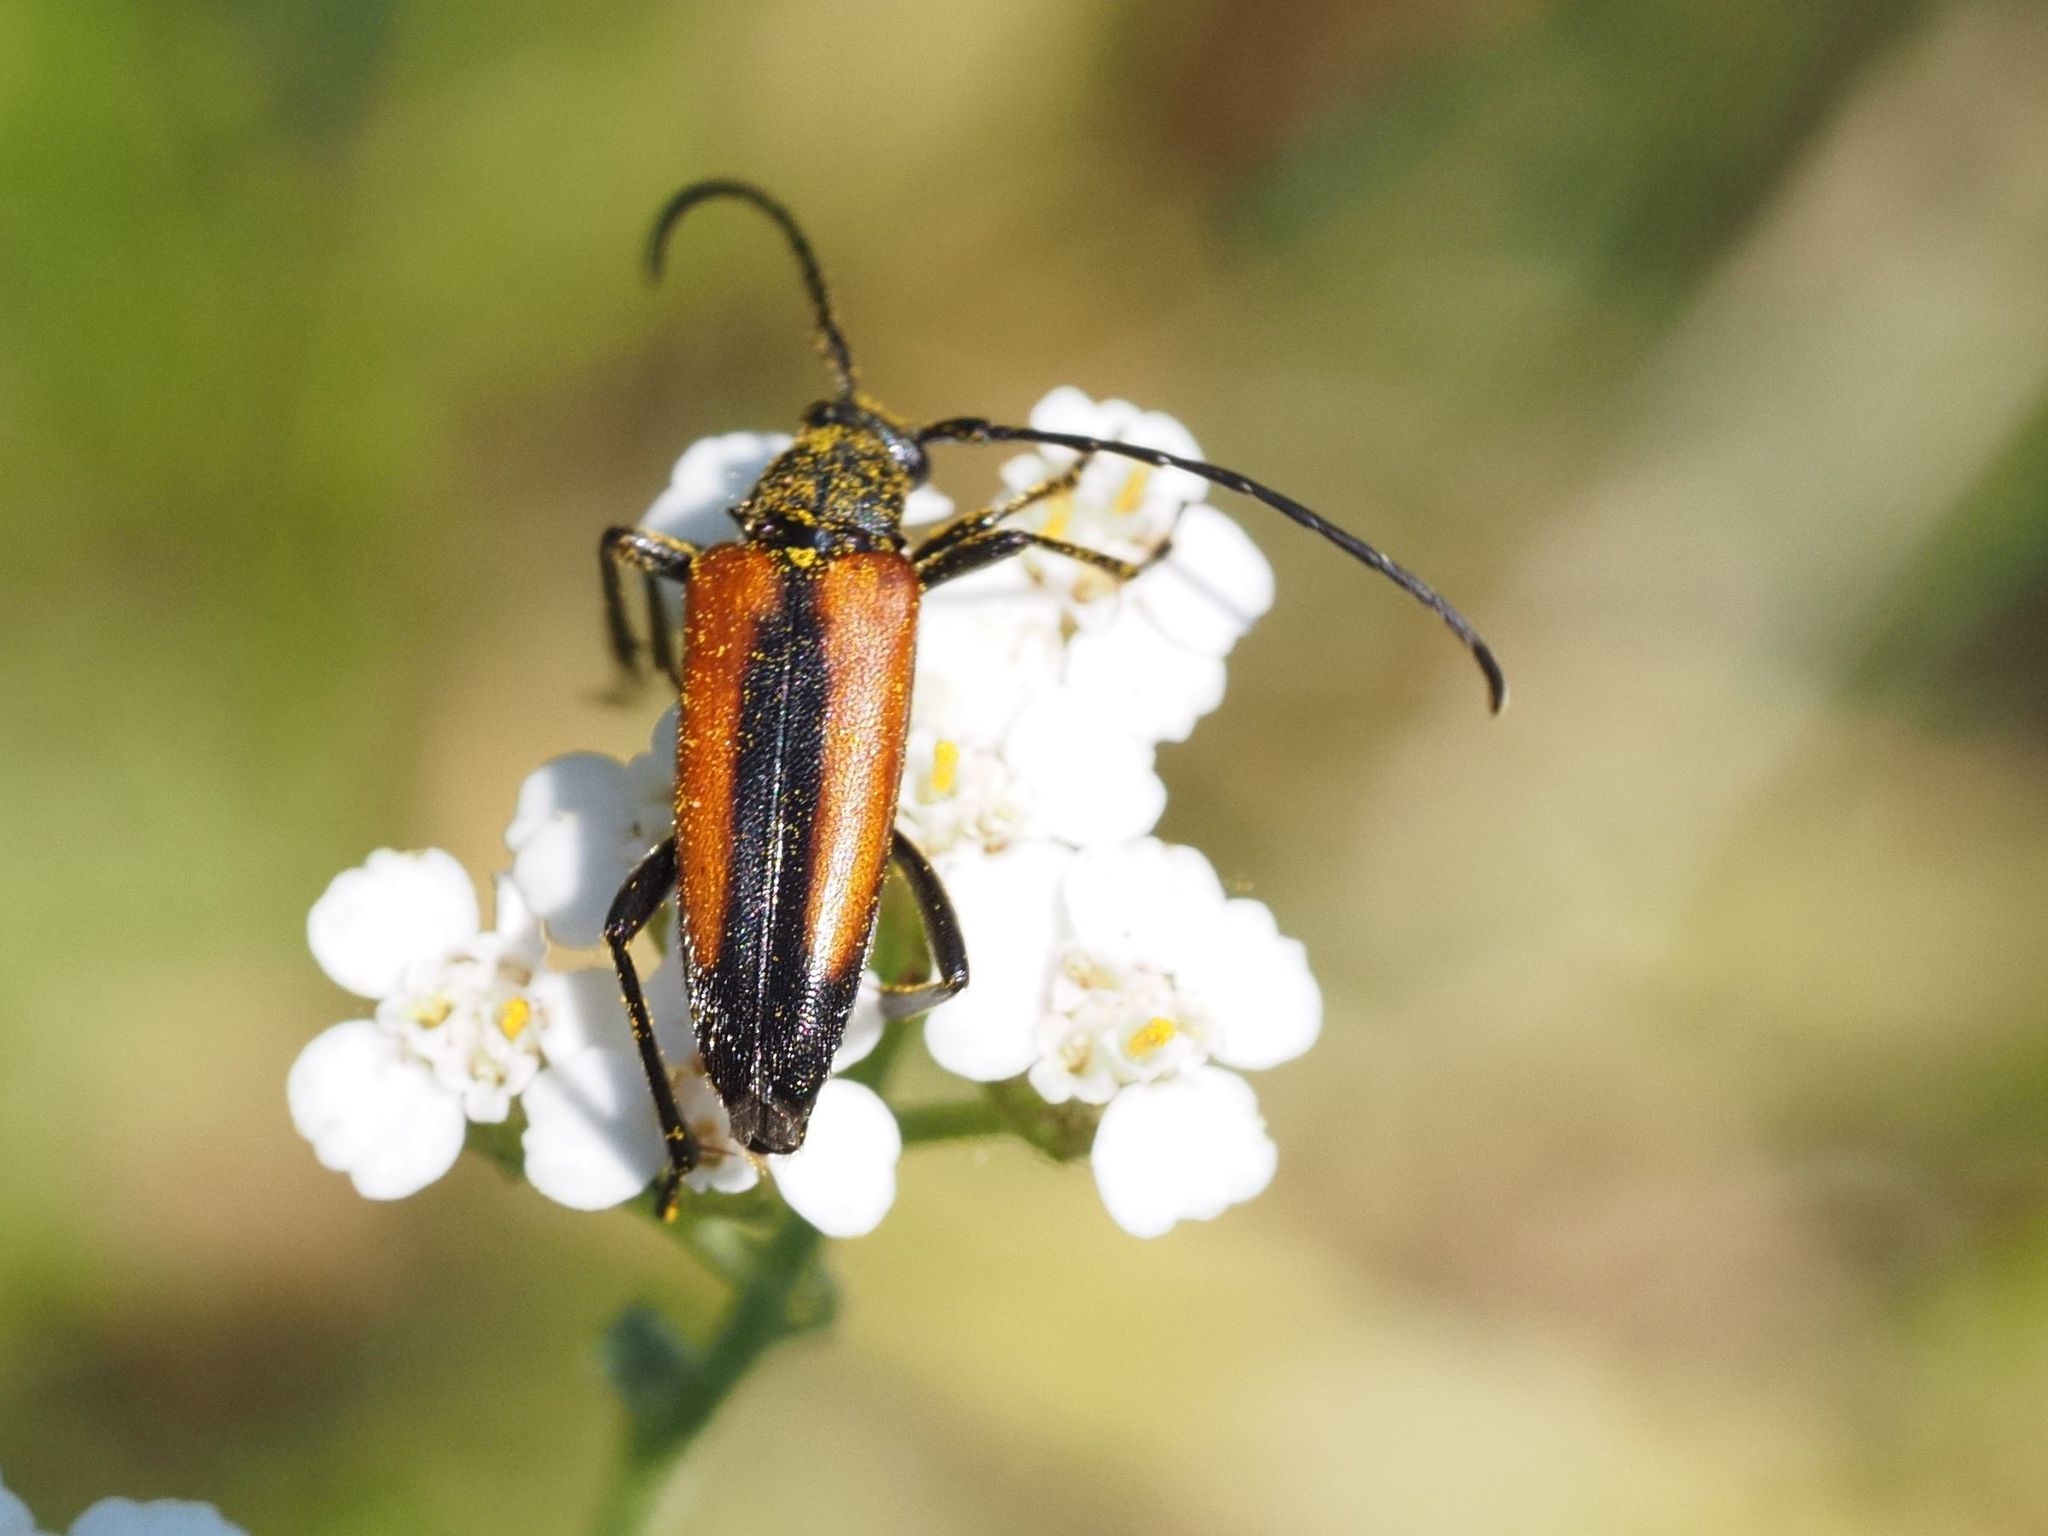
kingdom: Animalia
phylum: Arthropoda
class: Insecta
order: Coleoptera
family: Cerambycidae
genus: Stenurella
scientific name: Stenurella melanura
